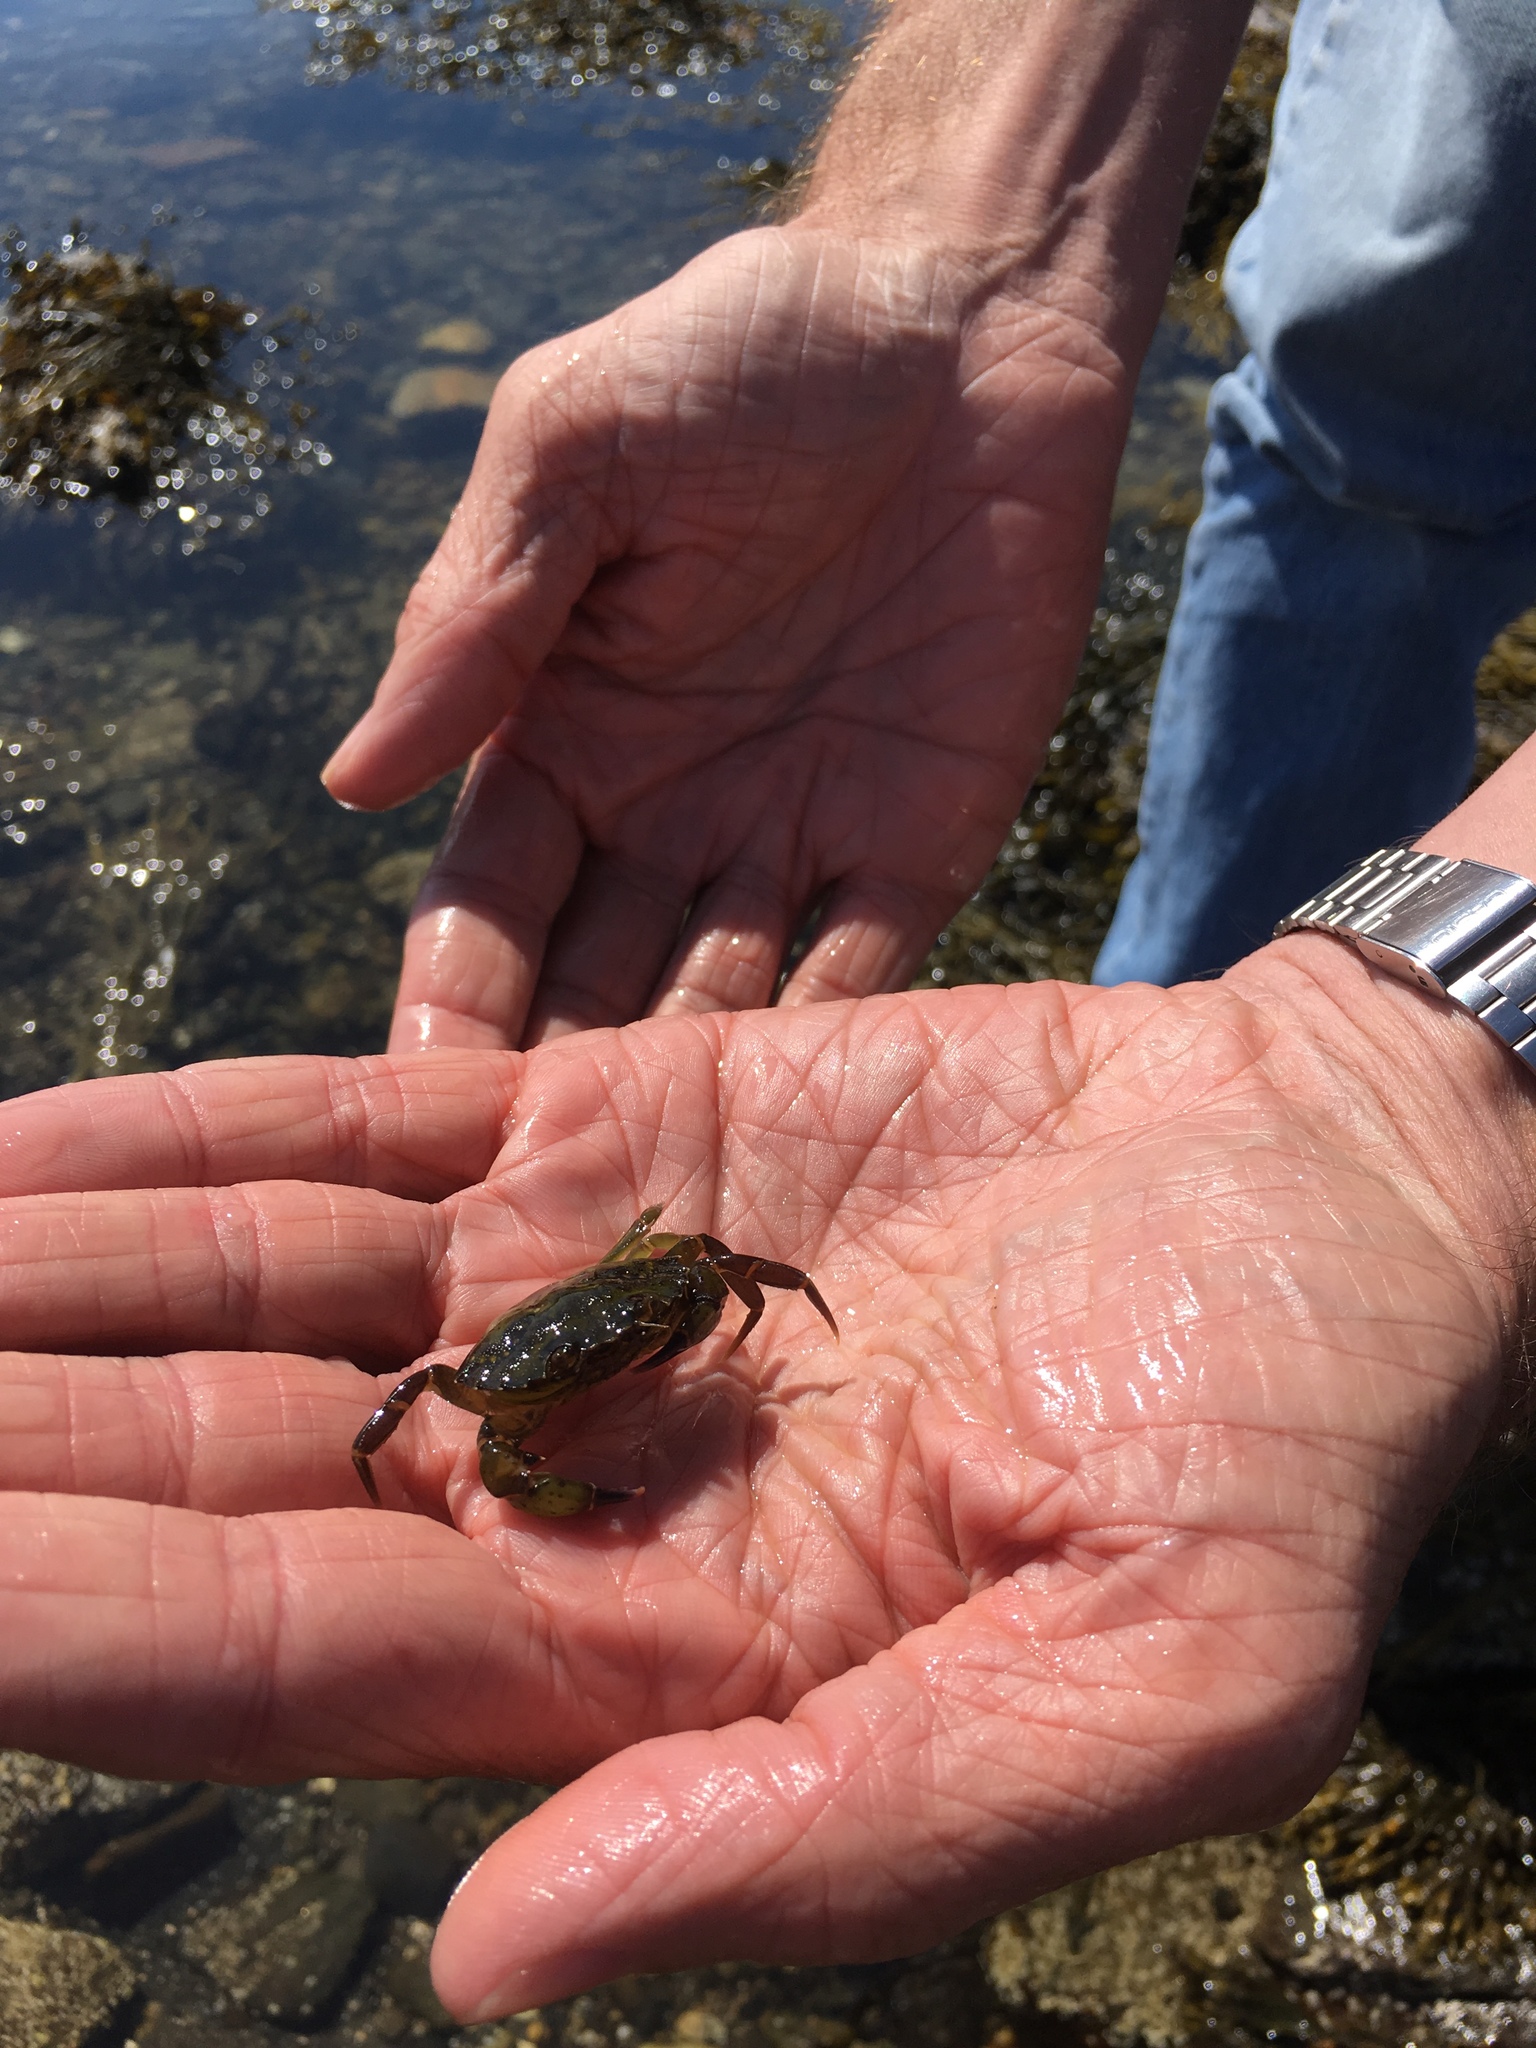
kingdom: Animalia
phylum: Arthropoda
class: Malacostraca
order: Decapoda
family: Carcinidae
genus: Carcinus
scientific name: Carcinus maenas
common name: European green crab
